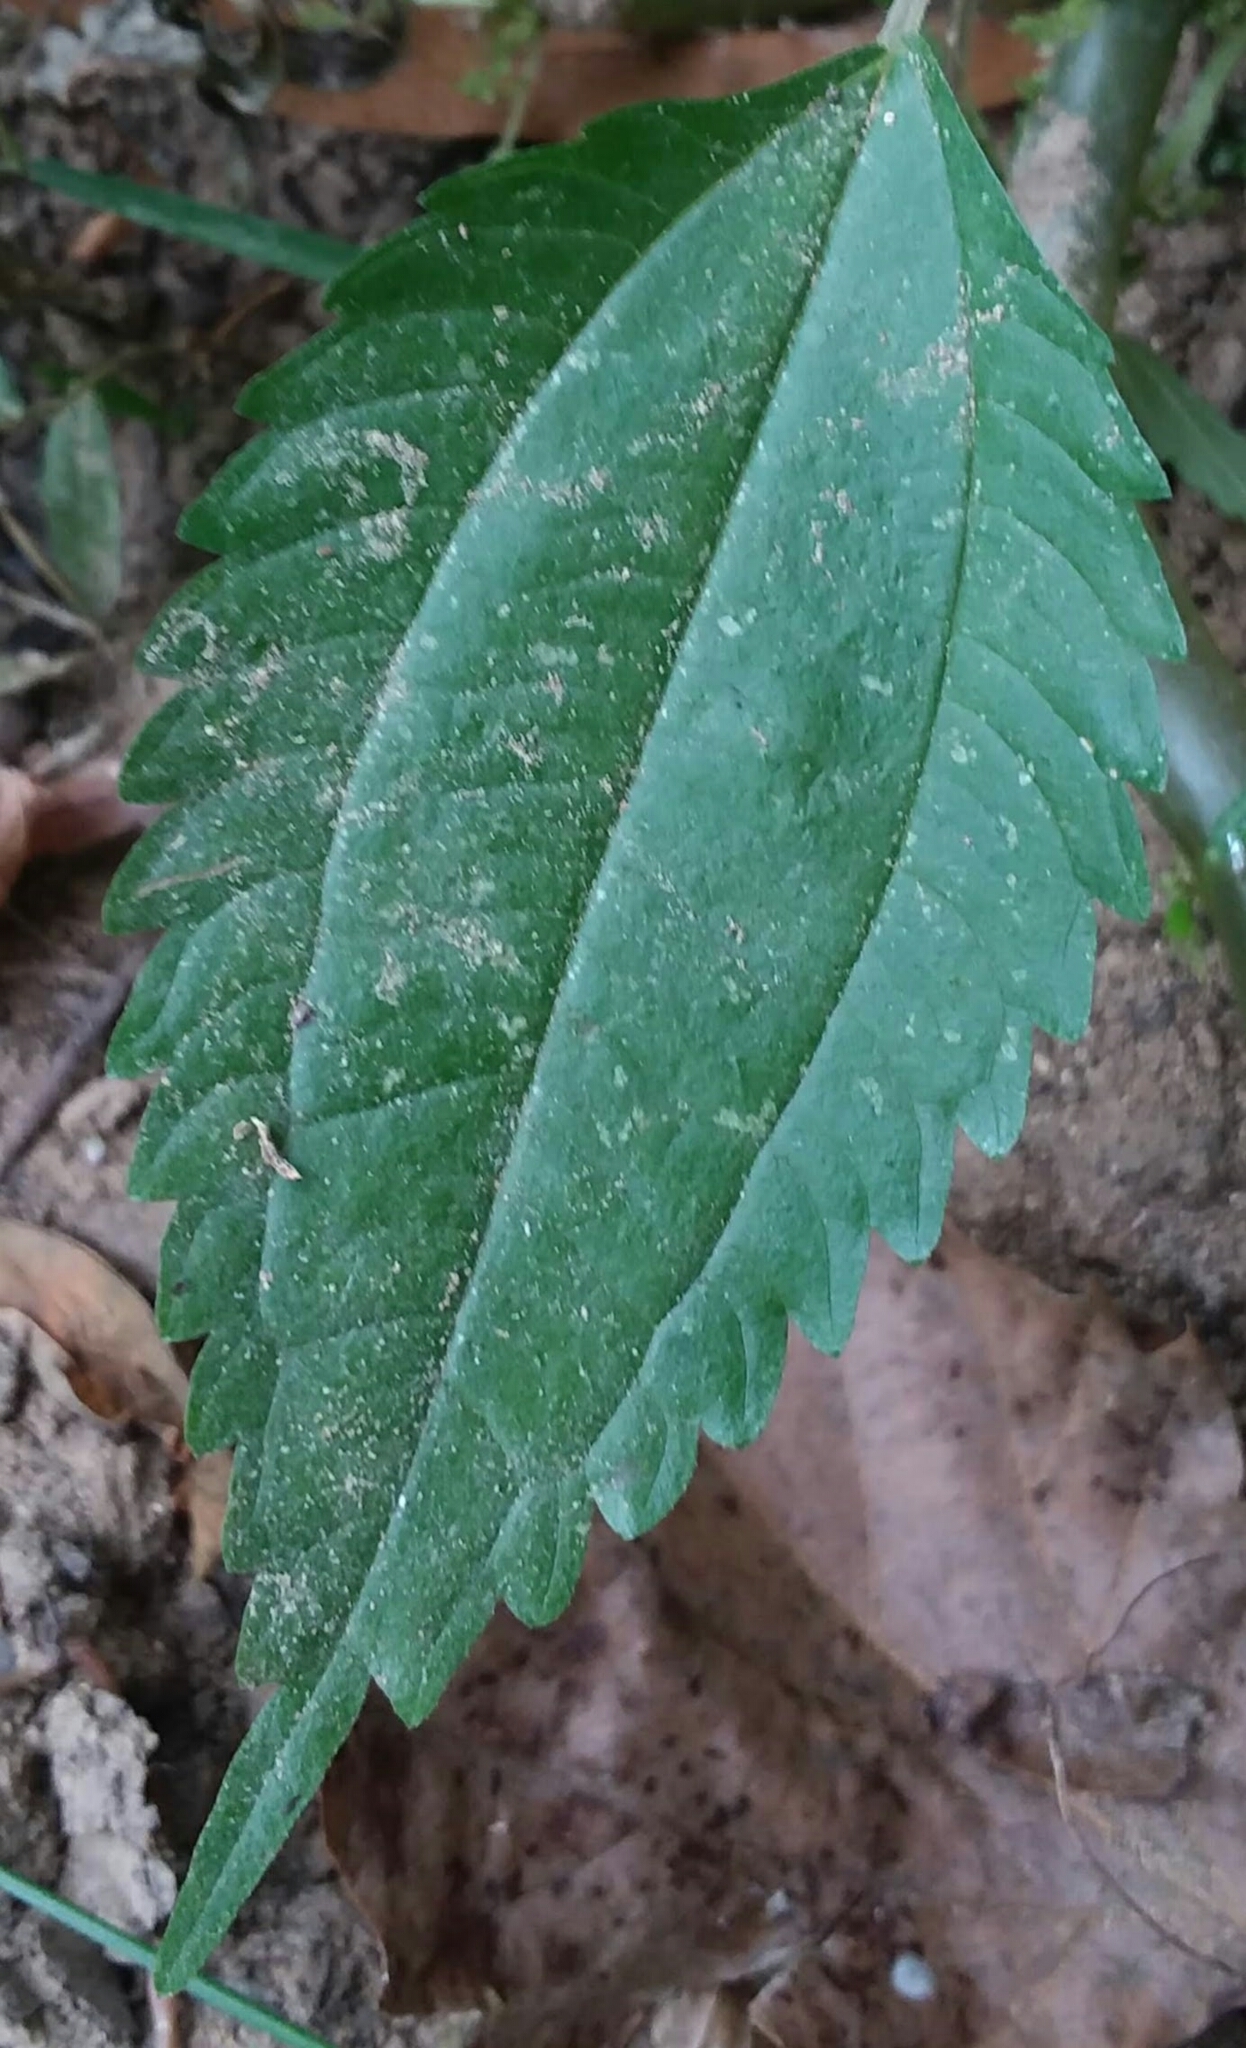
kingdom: Plantae
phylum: Tracheophyta
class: Magnoliopsida
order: Rosales
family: Urticaceae
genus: Pilea
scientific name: Pilea pumila
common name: Clearweed
